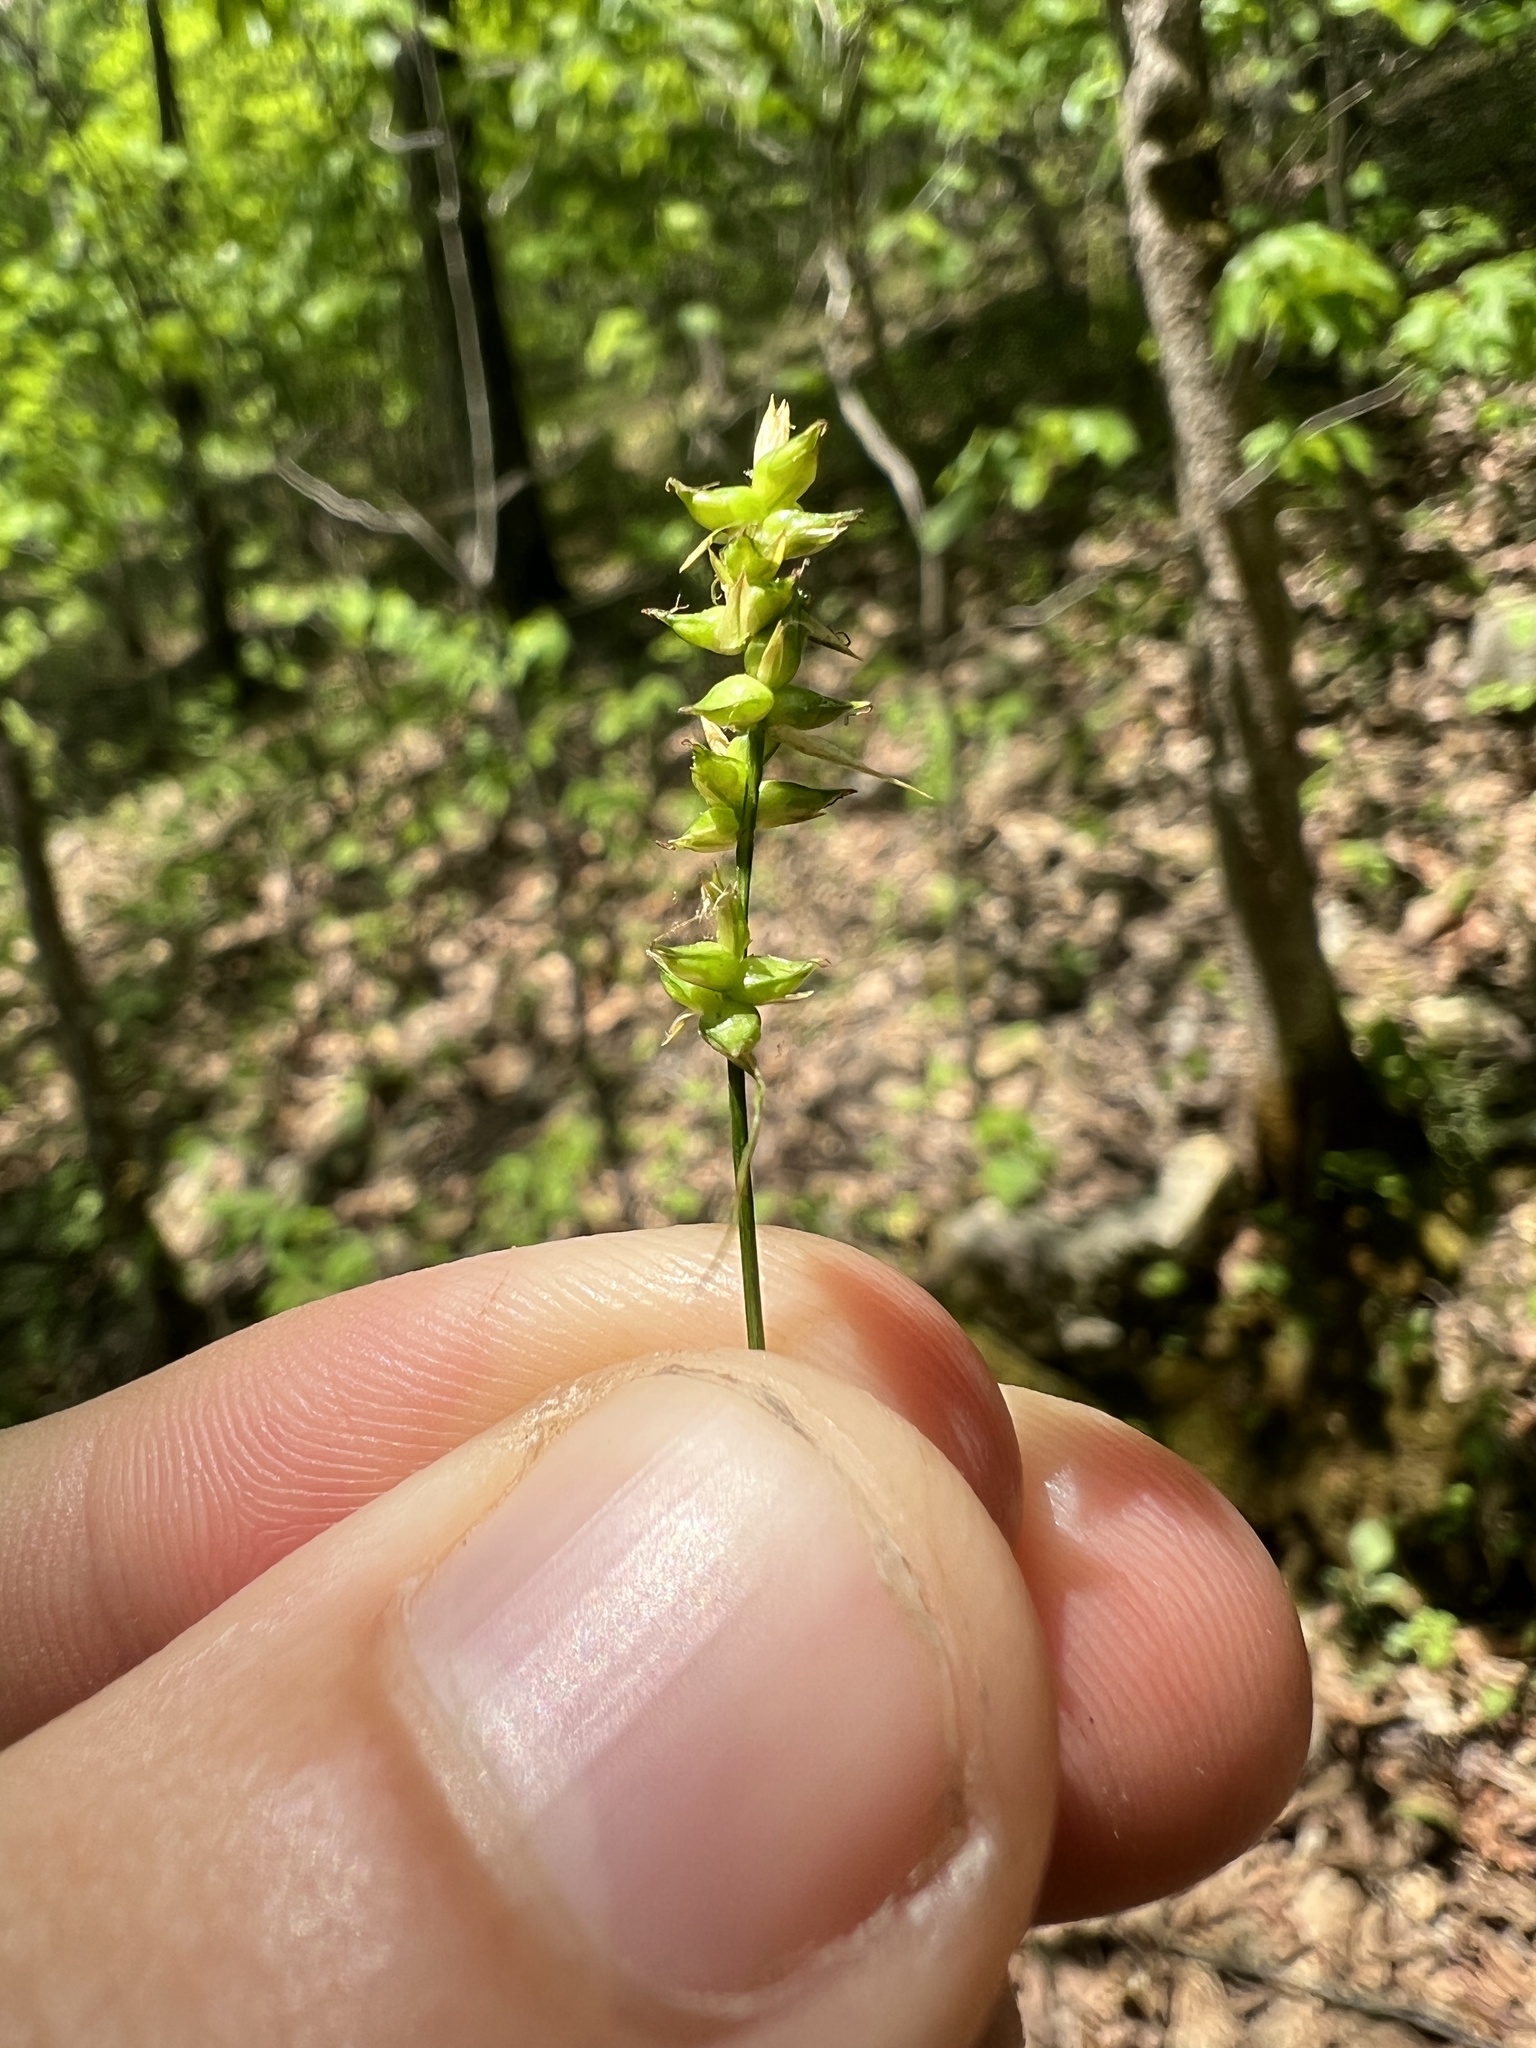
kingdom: Plantae
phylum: Tracheophyta
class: Liliopsida
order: Poales
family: Cyperaceae
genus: Carex
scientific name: Carex retroflexa
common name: Reflexed sedge
